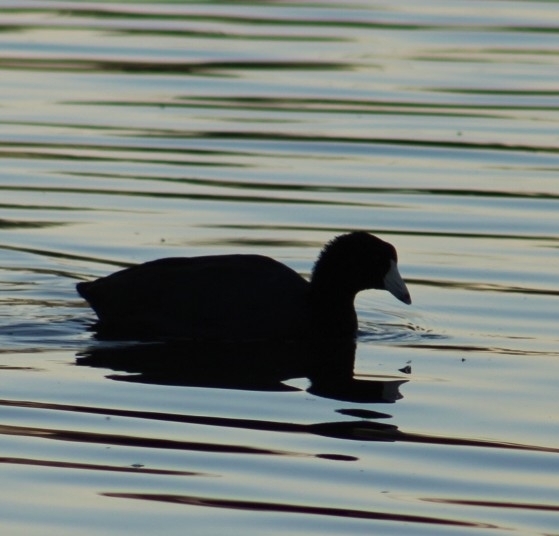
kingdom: Animalia
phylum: Chordata
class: Aves
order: Gruiformes
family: Rallidae
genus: Fulica
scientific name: Fulica americana
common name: American coot
